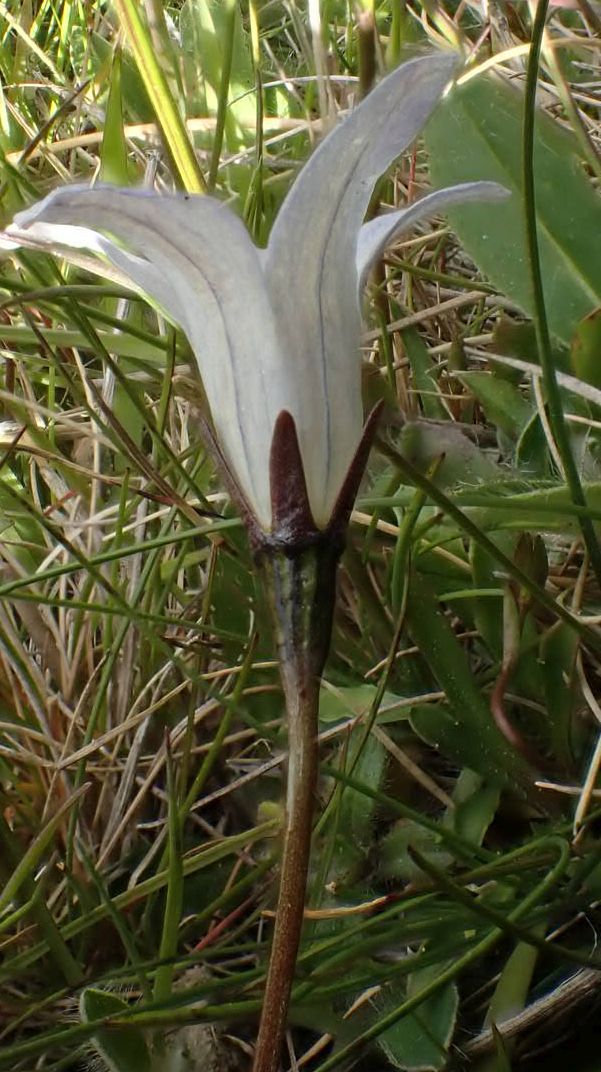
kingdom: Plantae
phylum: Tracheophyta
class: Magnoliopsida
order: Asterales
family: Campanulaceae
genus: Wahlenbergia
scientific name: Wahlenbergia albomarginata
